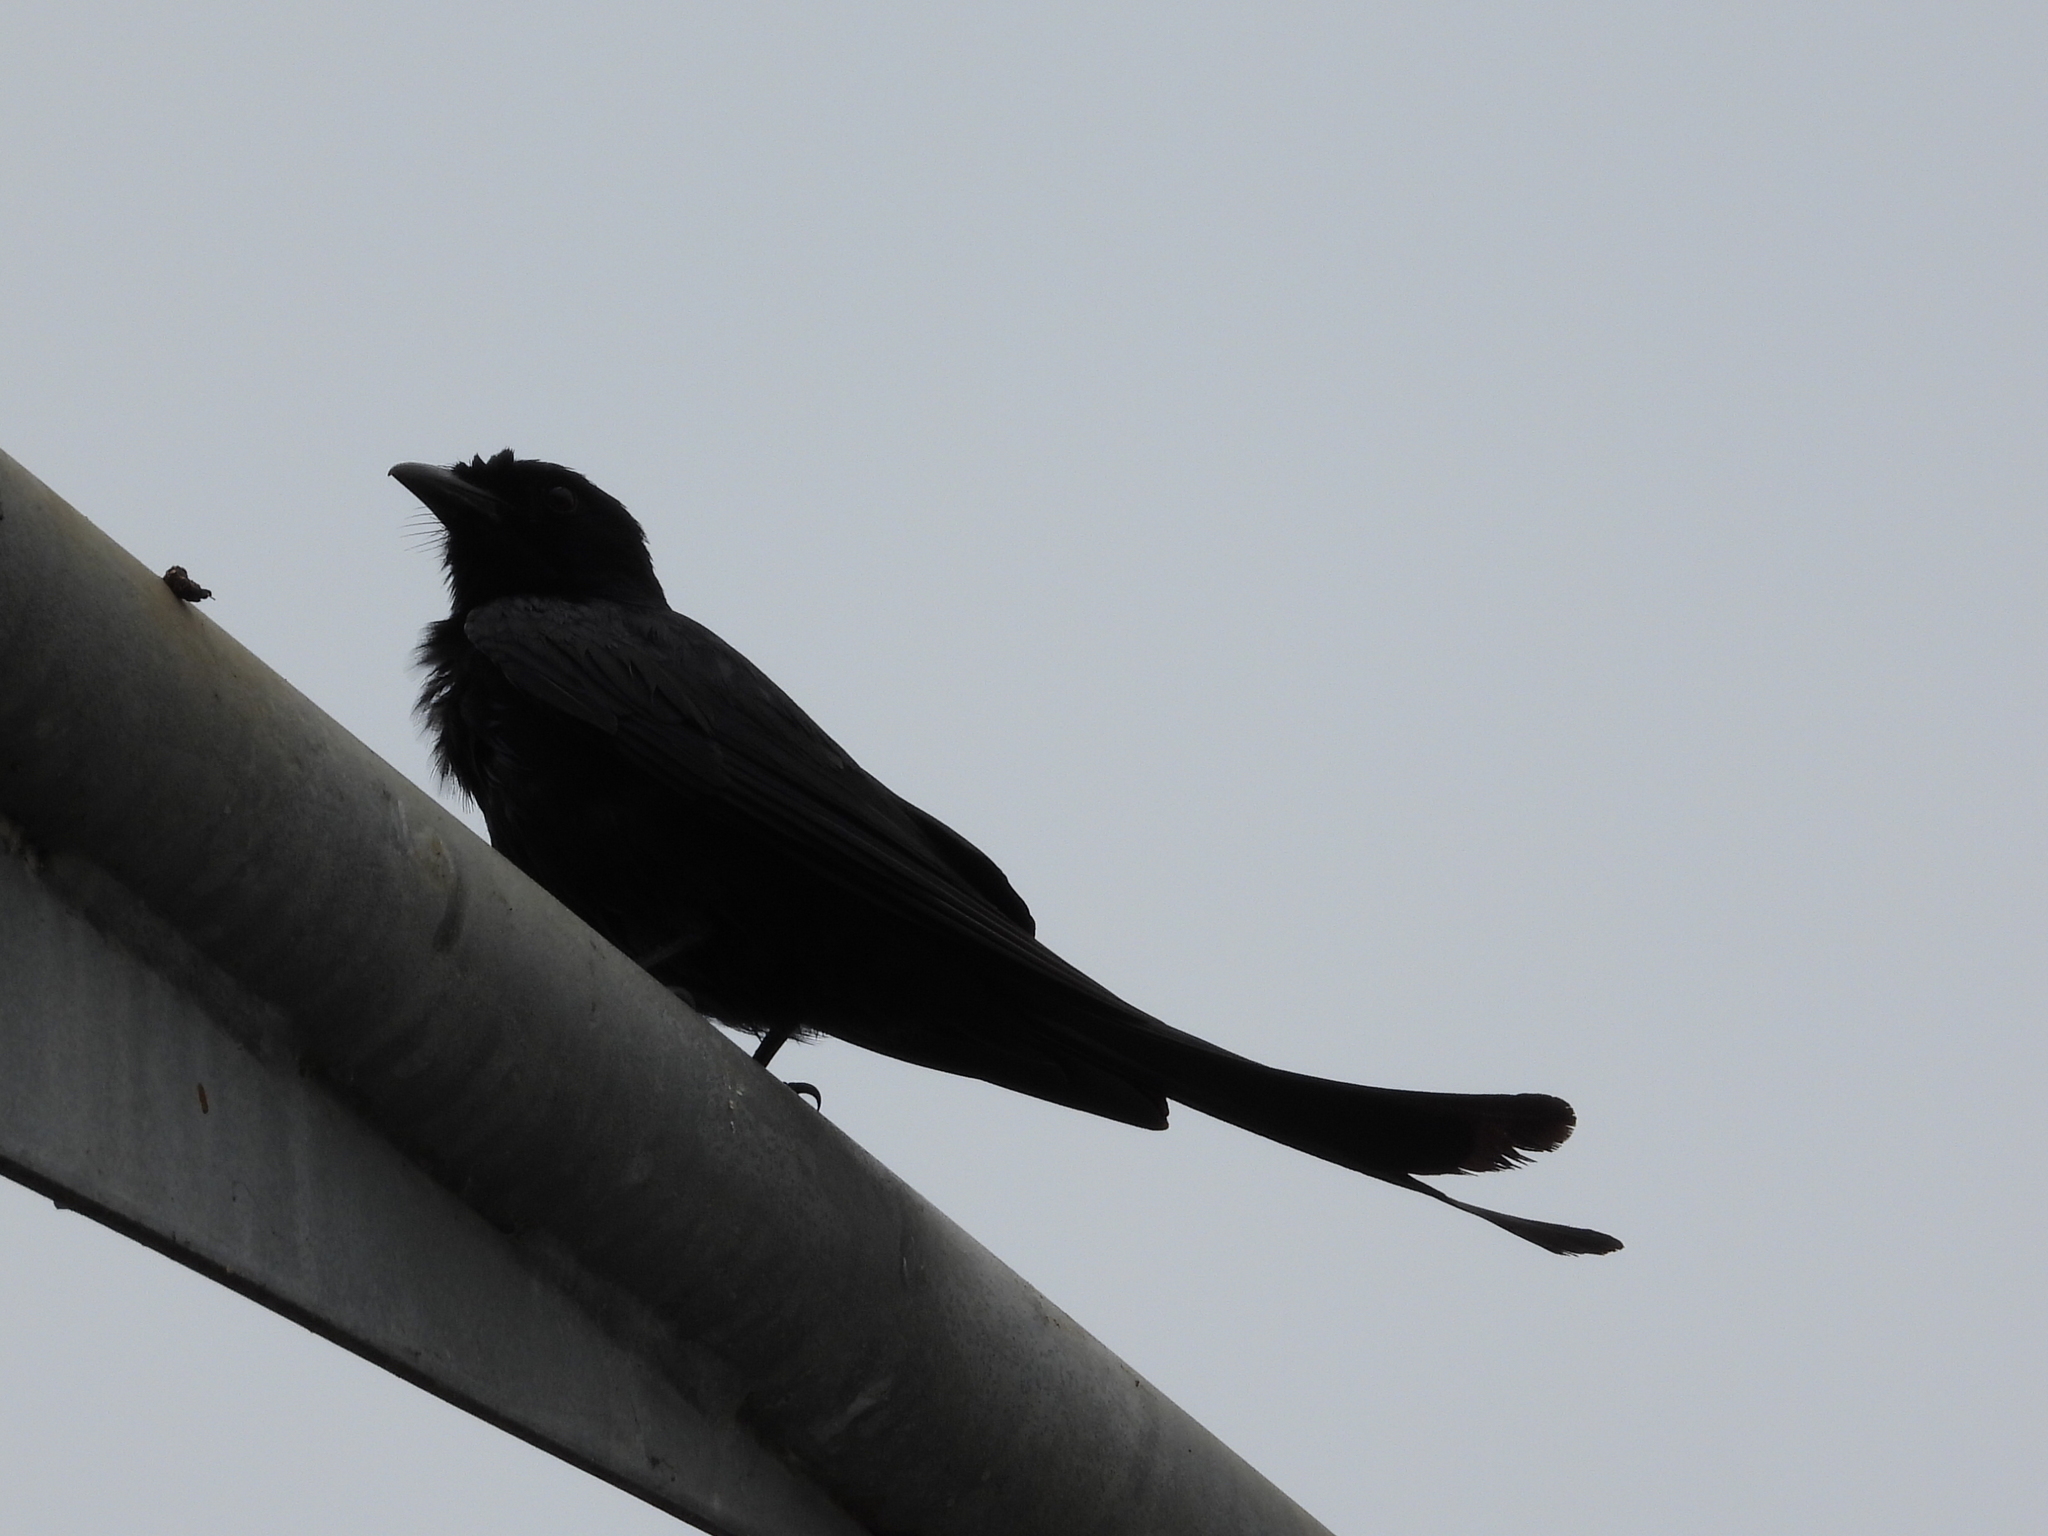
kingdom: Animalia
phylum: Chordata
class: Aves
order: Passeriformes
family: Dicruridae
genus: Dicrurus
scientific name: Dicrurus macrocercus
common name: Black drongo
